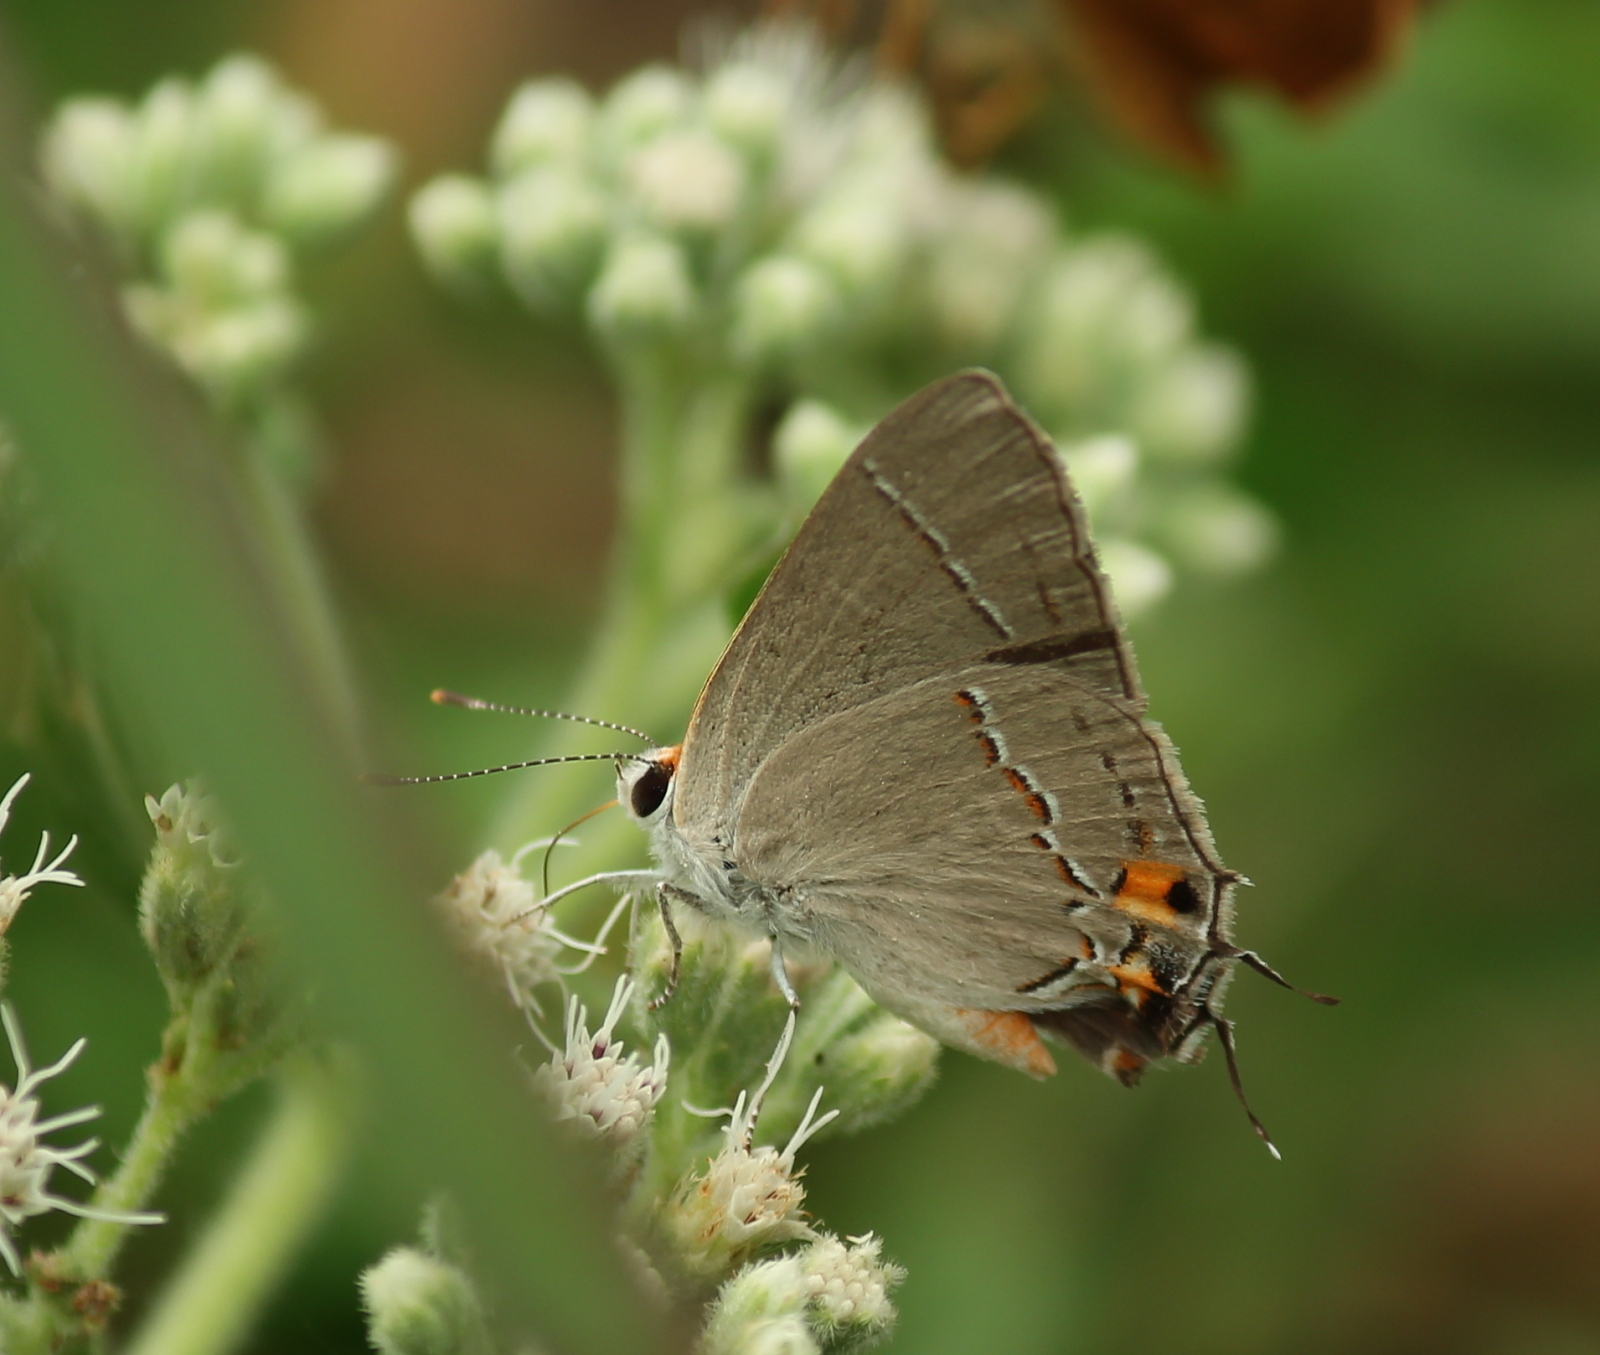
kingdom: Animalia
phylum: Arthropoda
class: Insecta
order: Lepidoptera
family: Lycaenidae
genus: Strymon
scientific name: Strymon melinus
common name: Gray hairstreak
